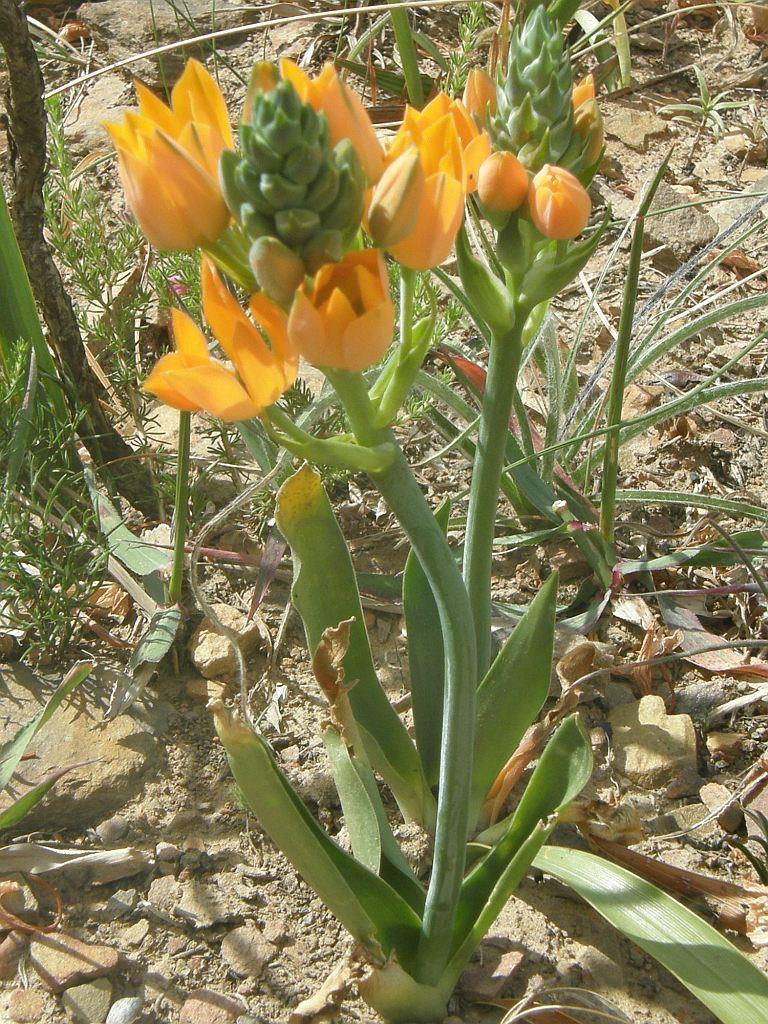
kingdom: Plantae
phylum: Tracheophyta
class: Liliopsida
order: Asparagales
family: Asparagaceae
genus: Ornithogalum
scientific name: Ornithogalum dubium
